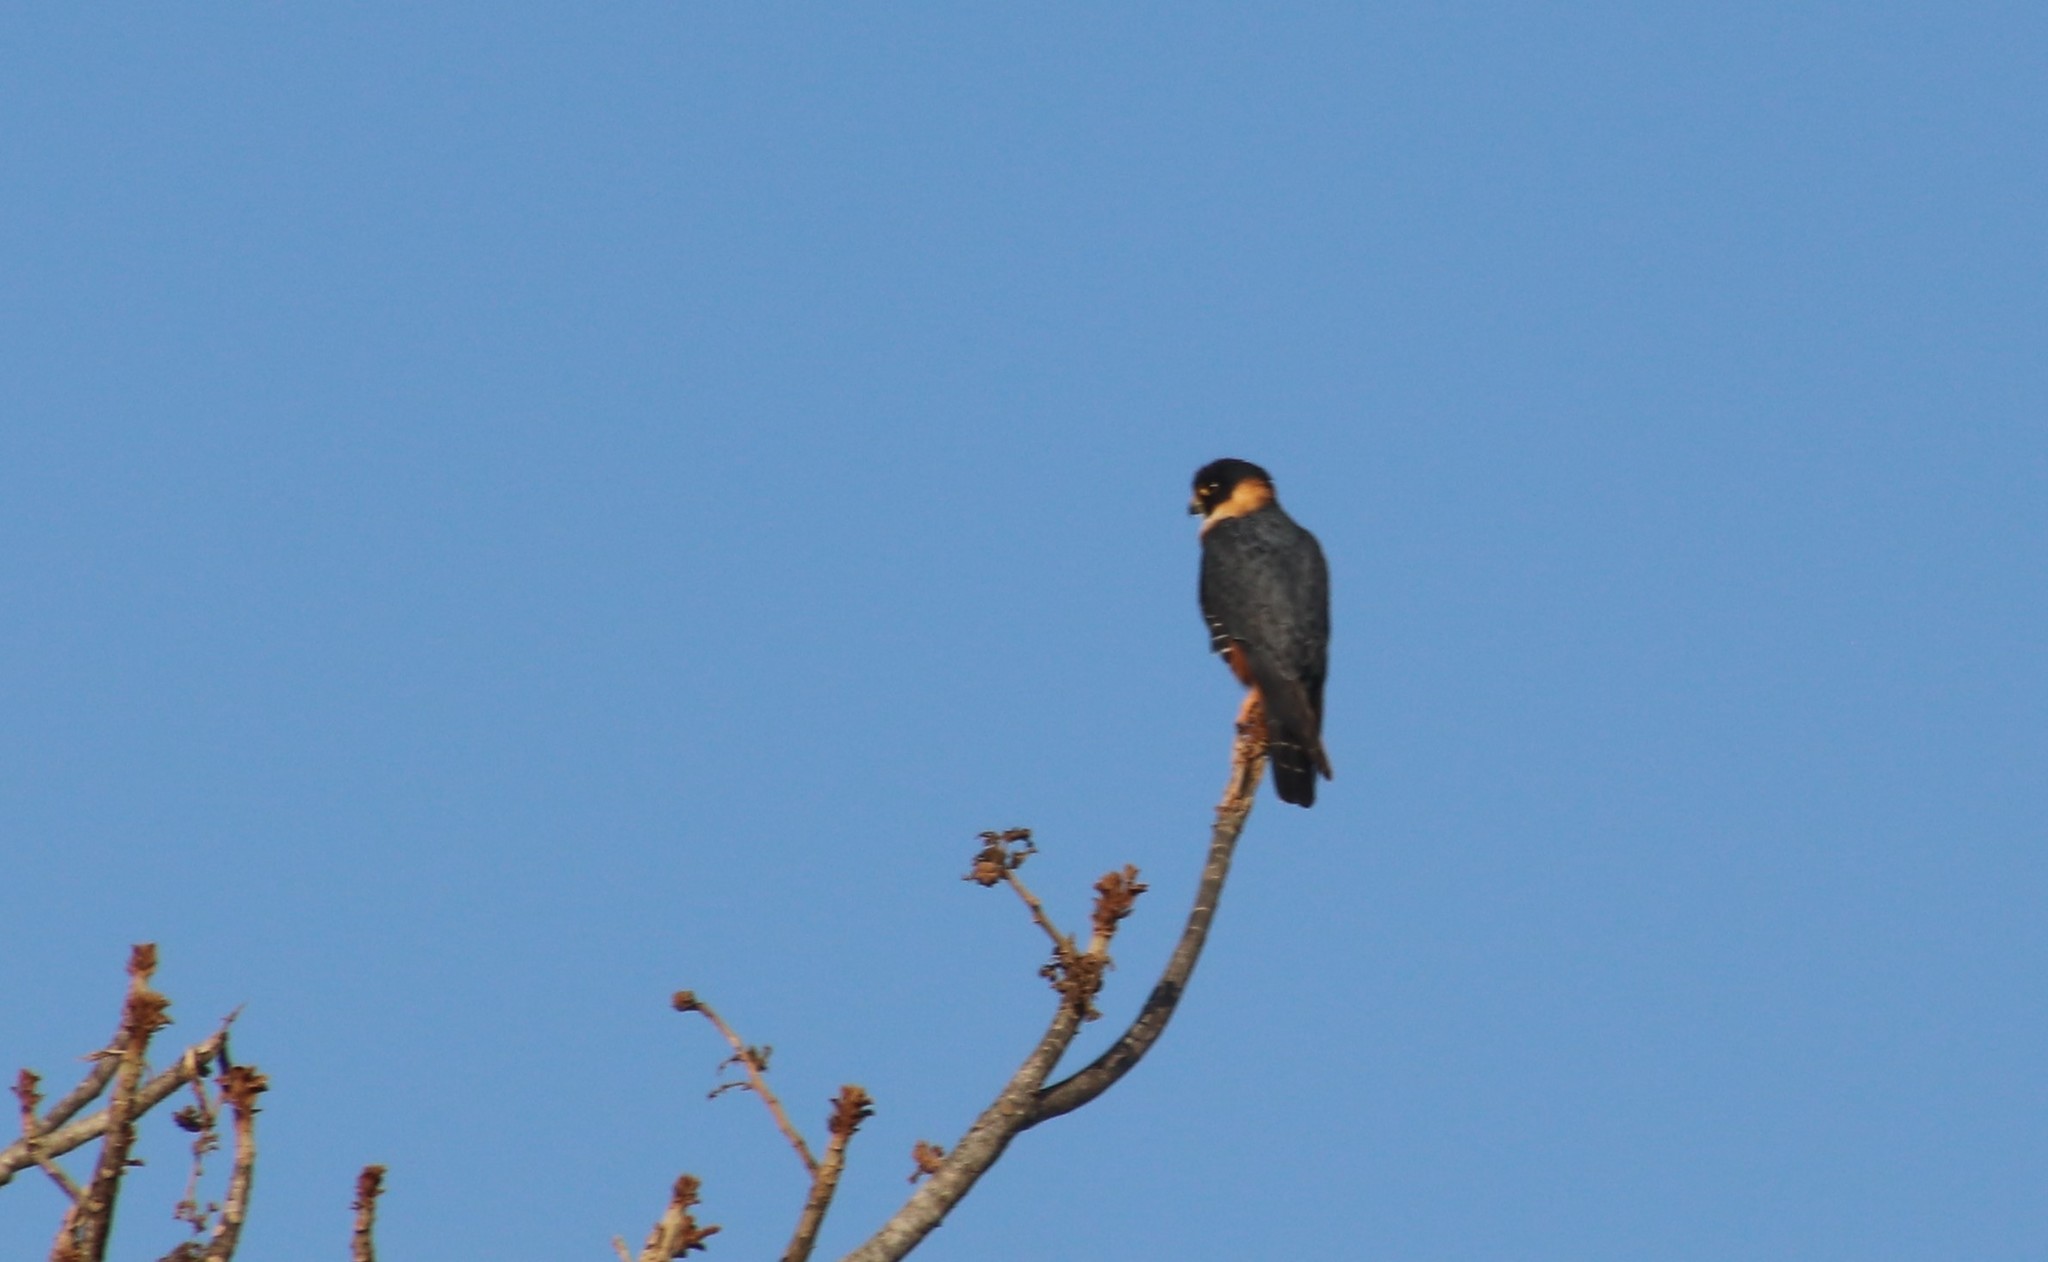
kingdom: Animalia
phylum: Chordata
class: Aves
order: Falconiformes
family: Falconidae
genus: Falco
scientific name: Falco rufigularis
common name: Bat falcon
